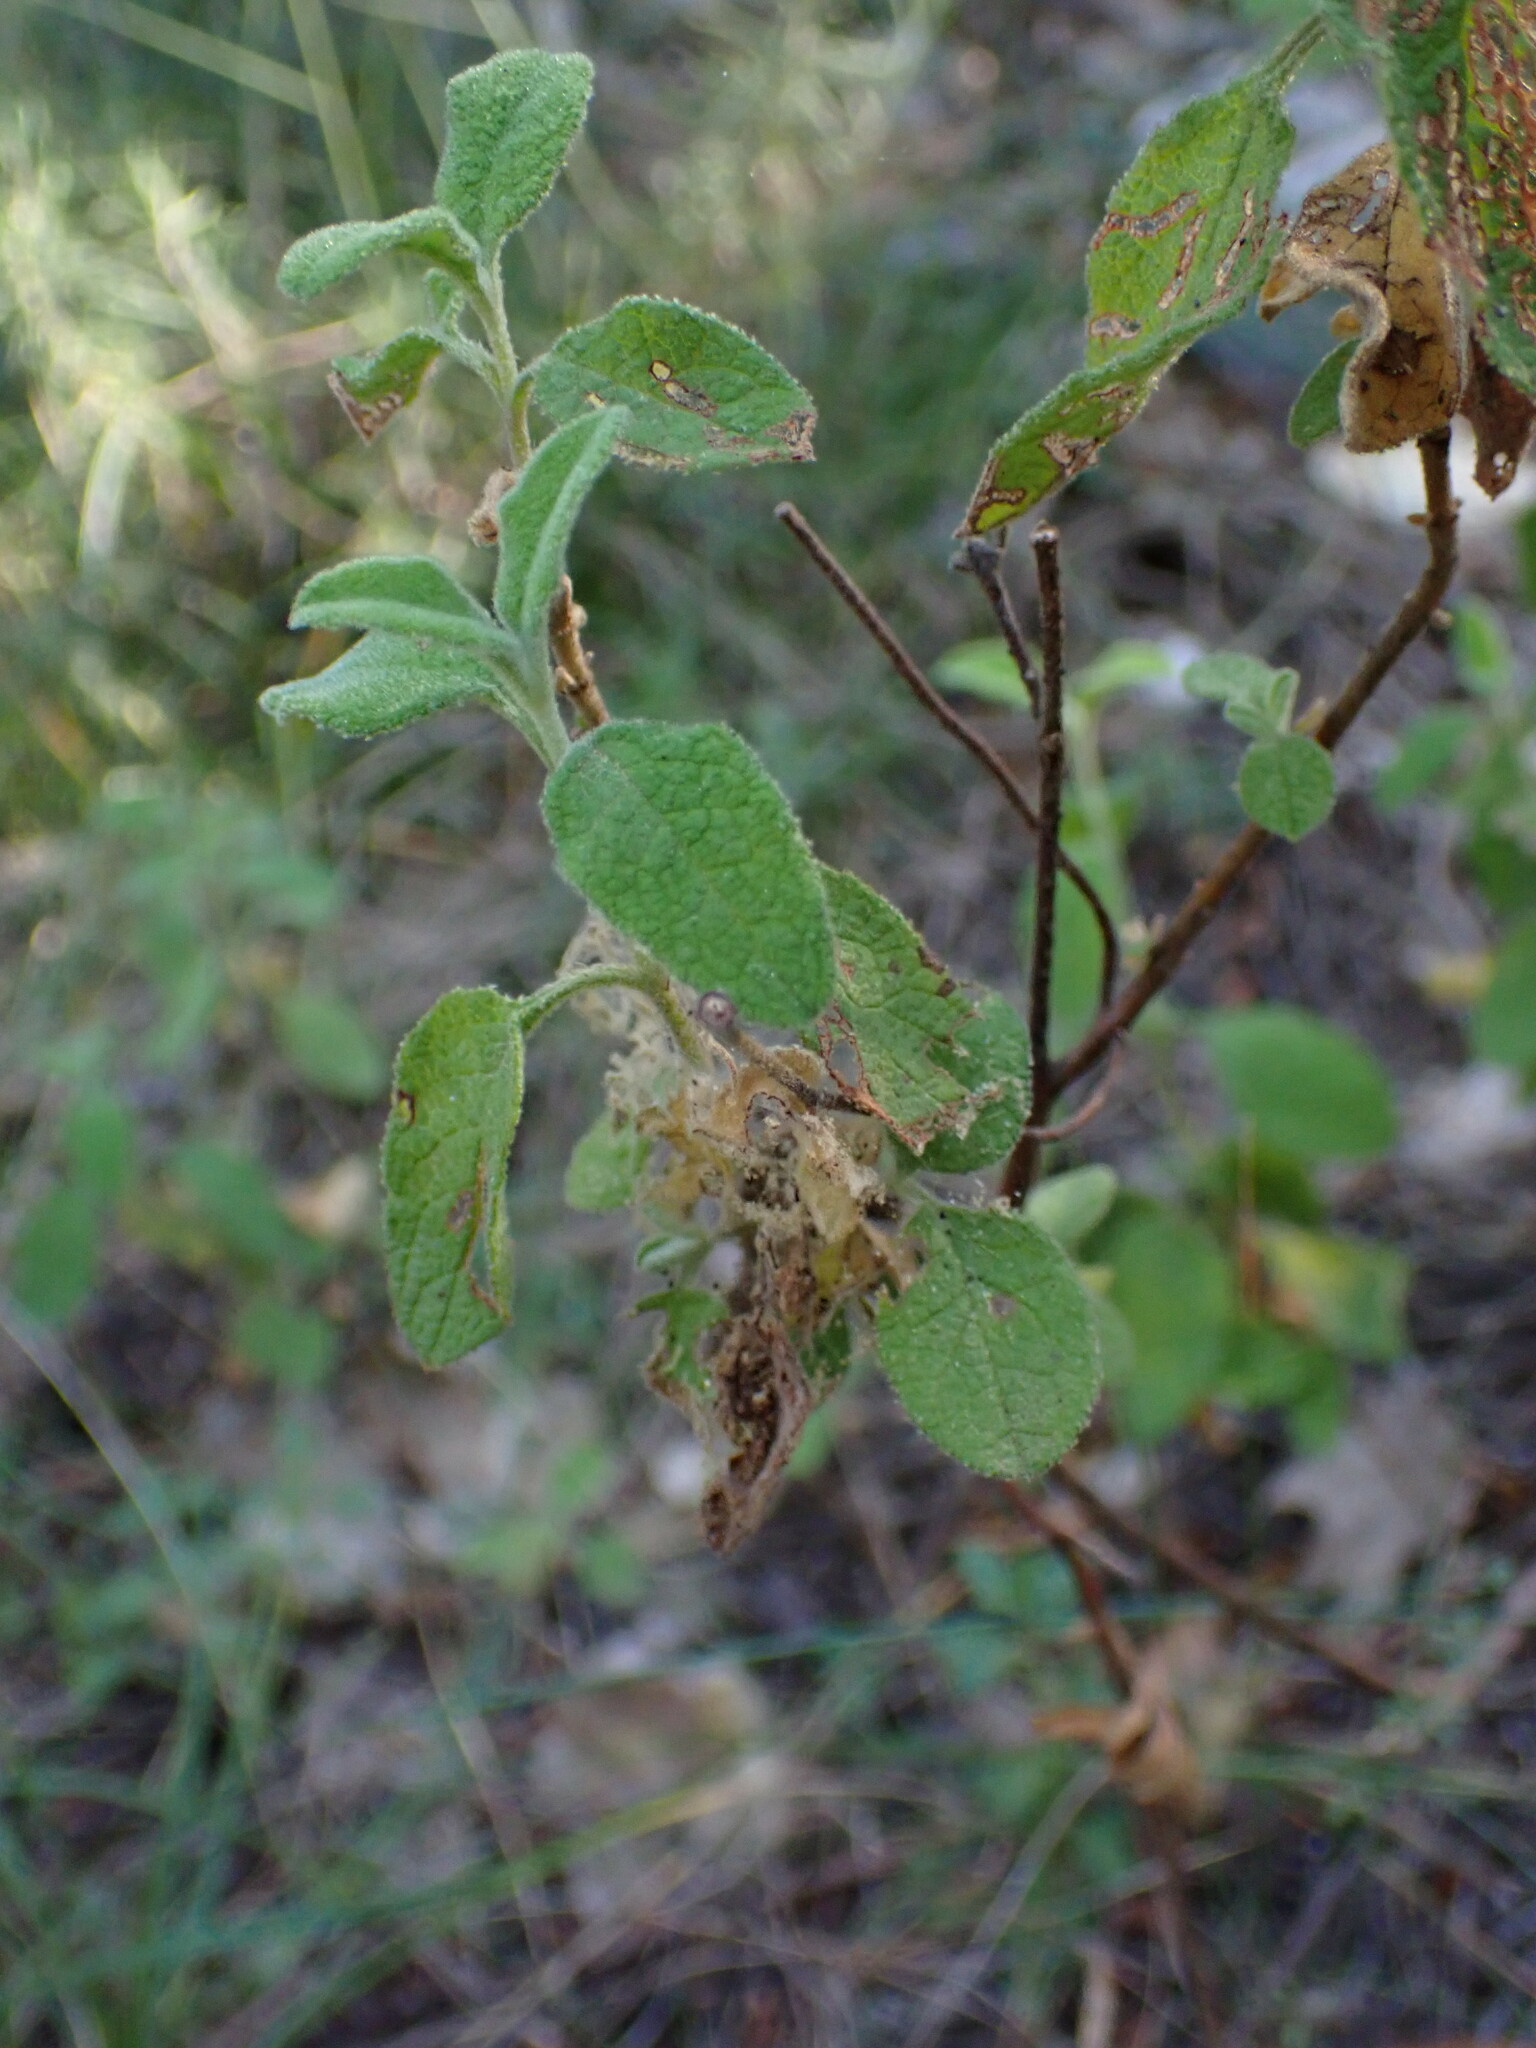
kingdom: Plantae
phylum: Tracheophyta
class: Magnoliopsida
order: Malvales
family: Cistaceae
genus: Cistus
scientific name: Cistus salviifolius
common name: Salvia cistus
